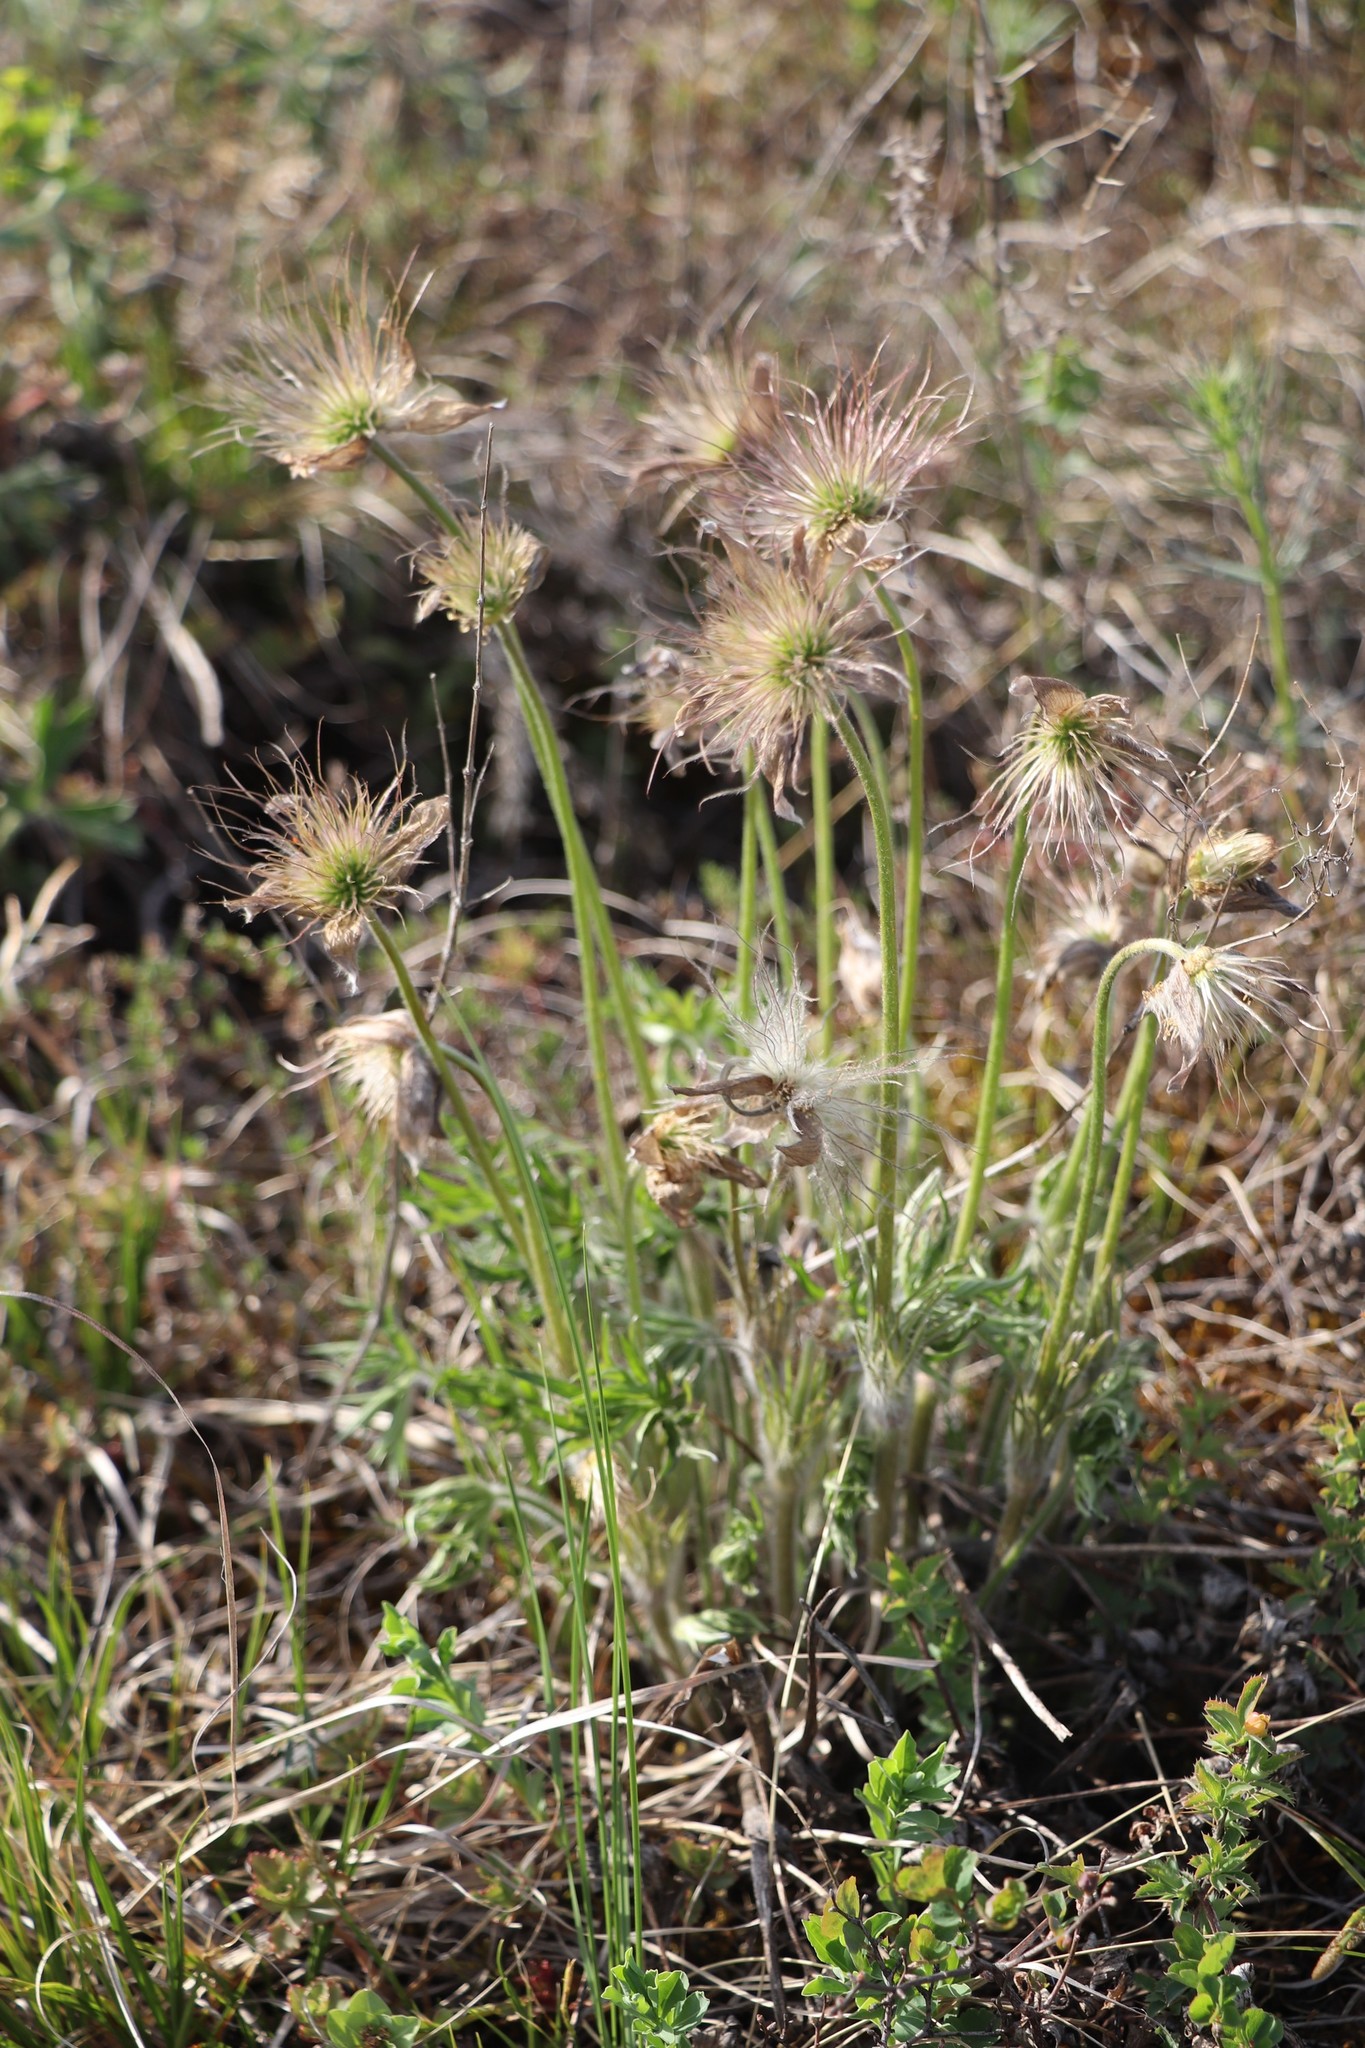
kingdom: Plantae
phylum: Tracheophyta
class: Magnoliopsida
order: Ranunculales
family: Ranunculaceae
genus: Pulsatilla
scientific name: Pulsatilla patens
